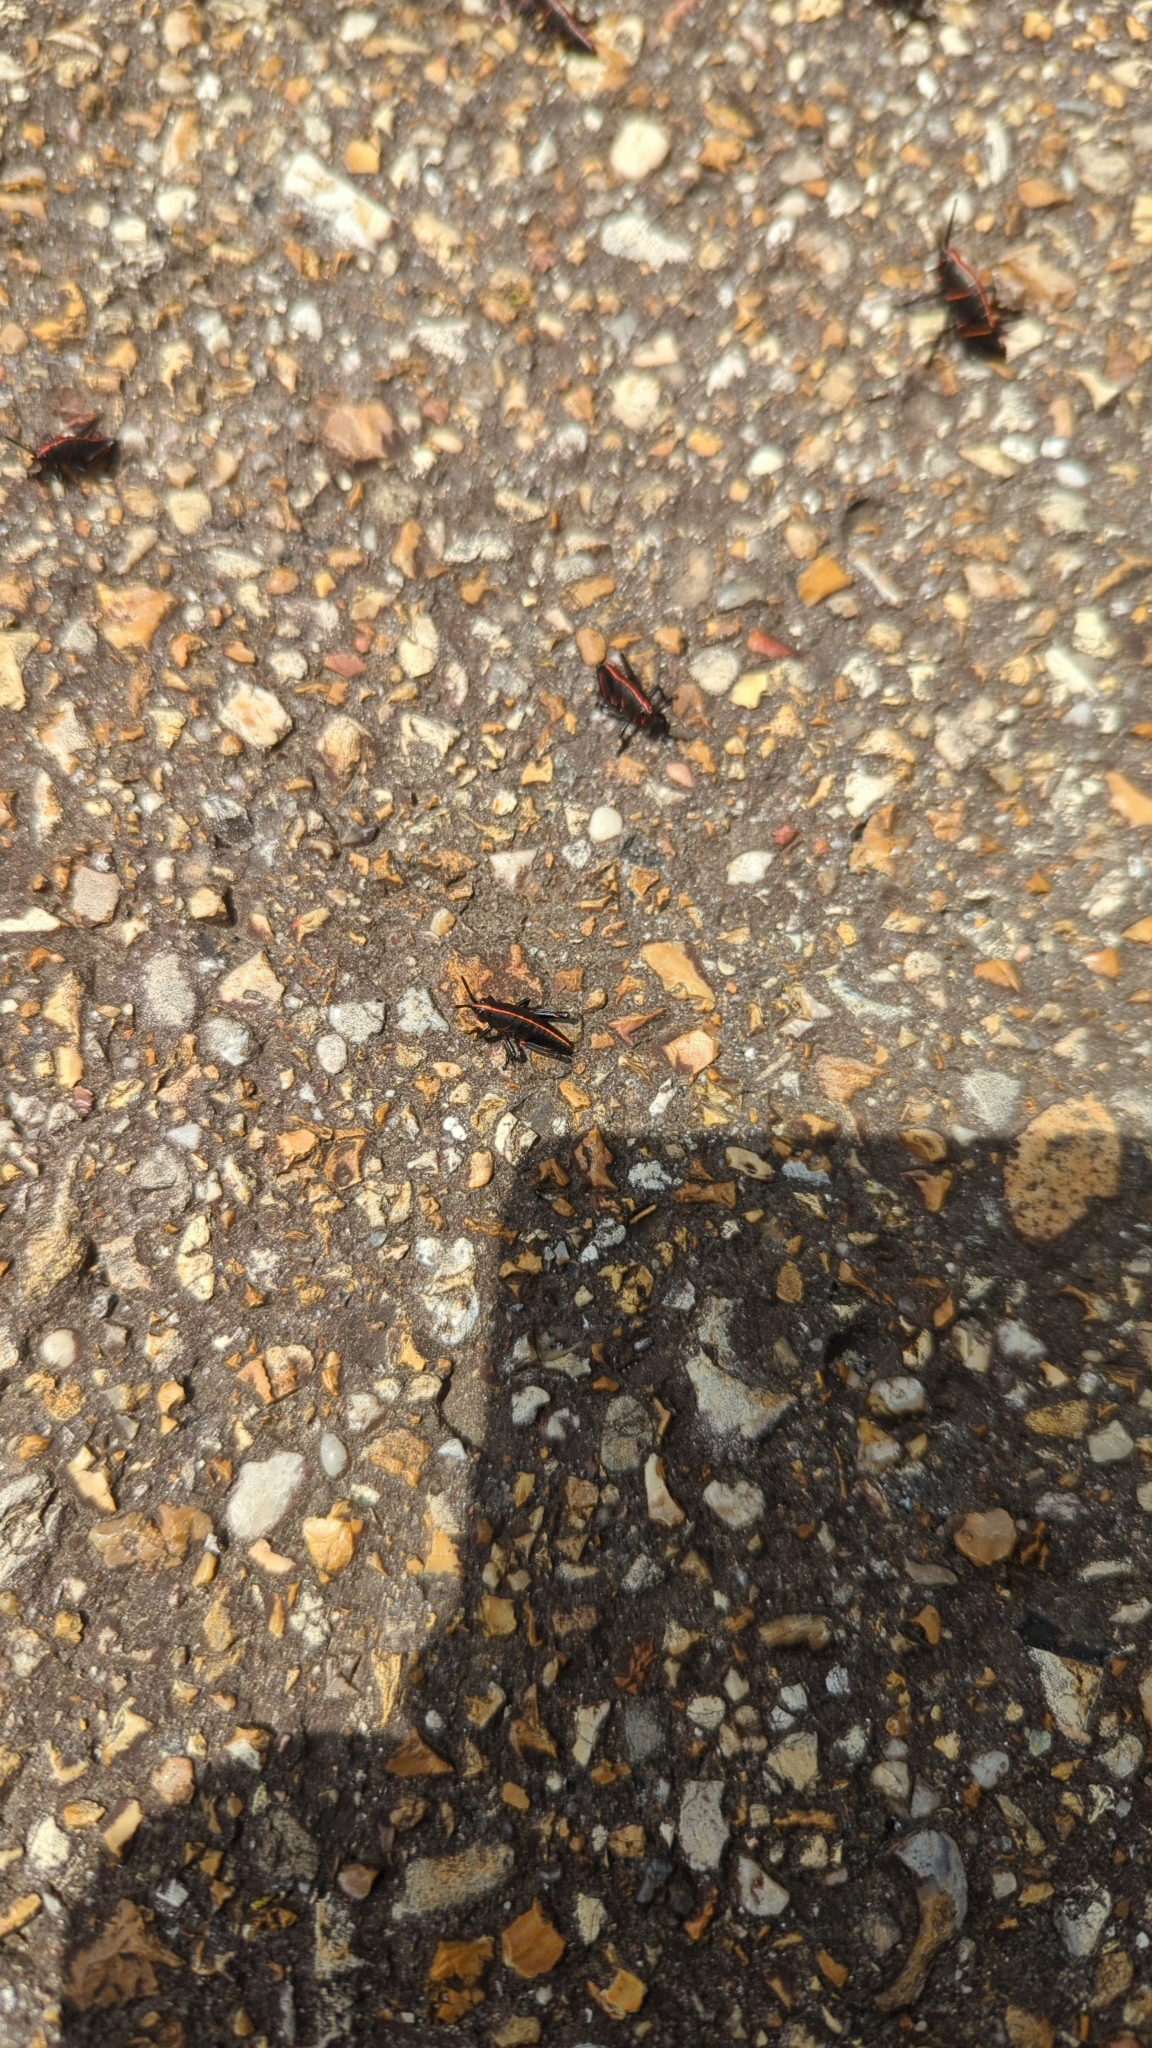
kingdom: Animalia
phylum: Arthropoda
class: Insecta
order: Orthoptera
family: Romaleidae
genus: Romalea
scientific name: Romalea microptera
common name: Eastern lubber grasshopper
